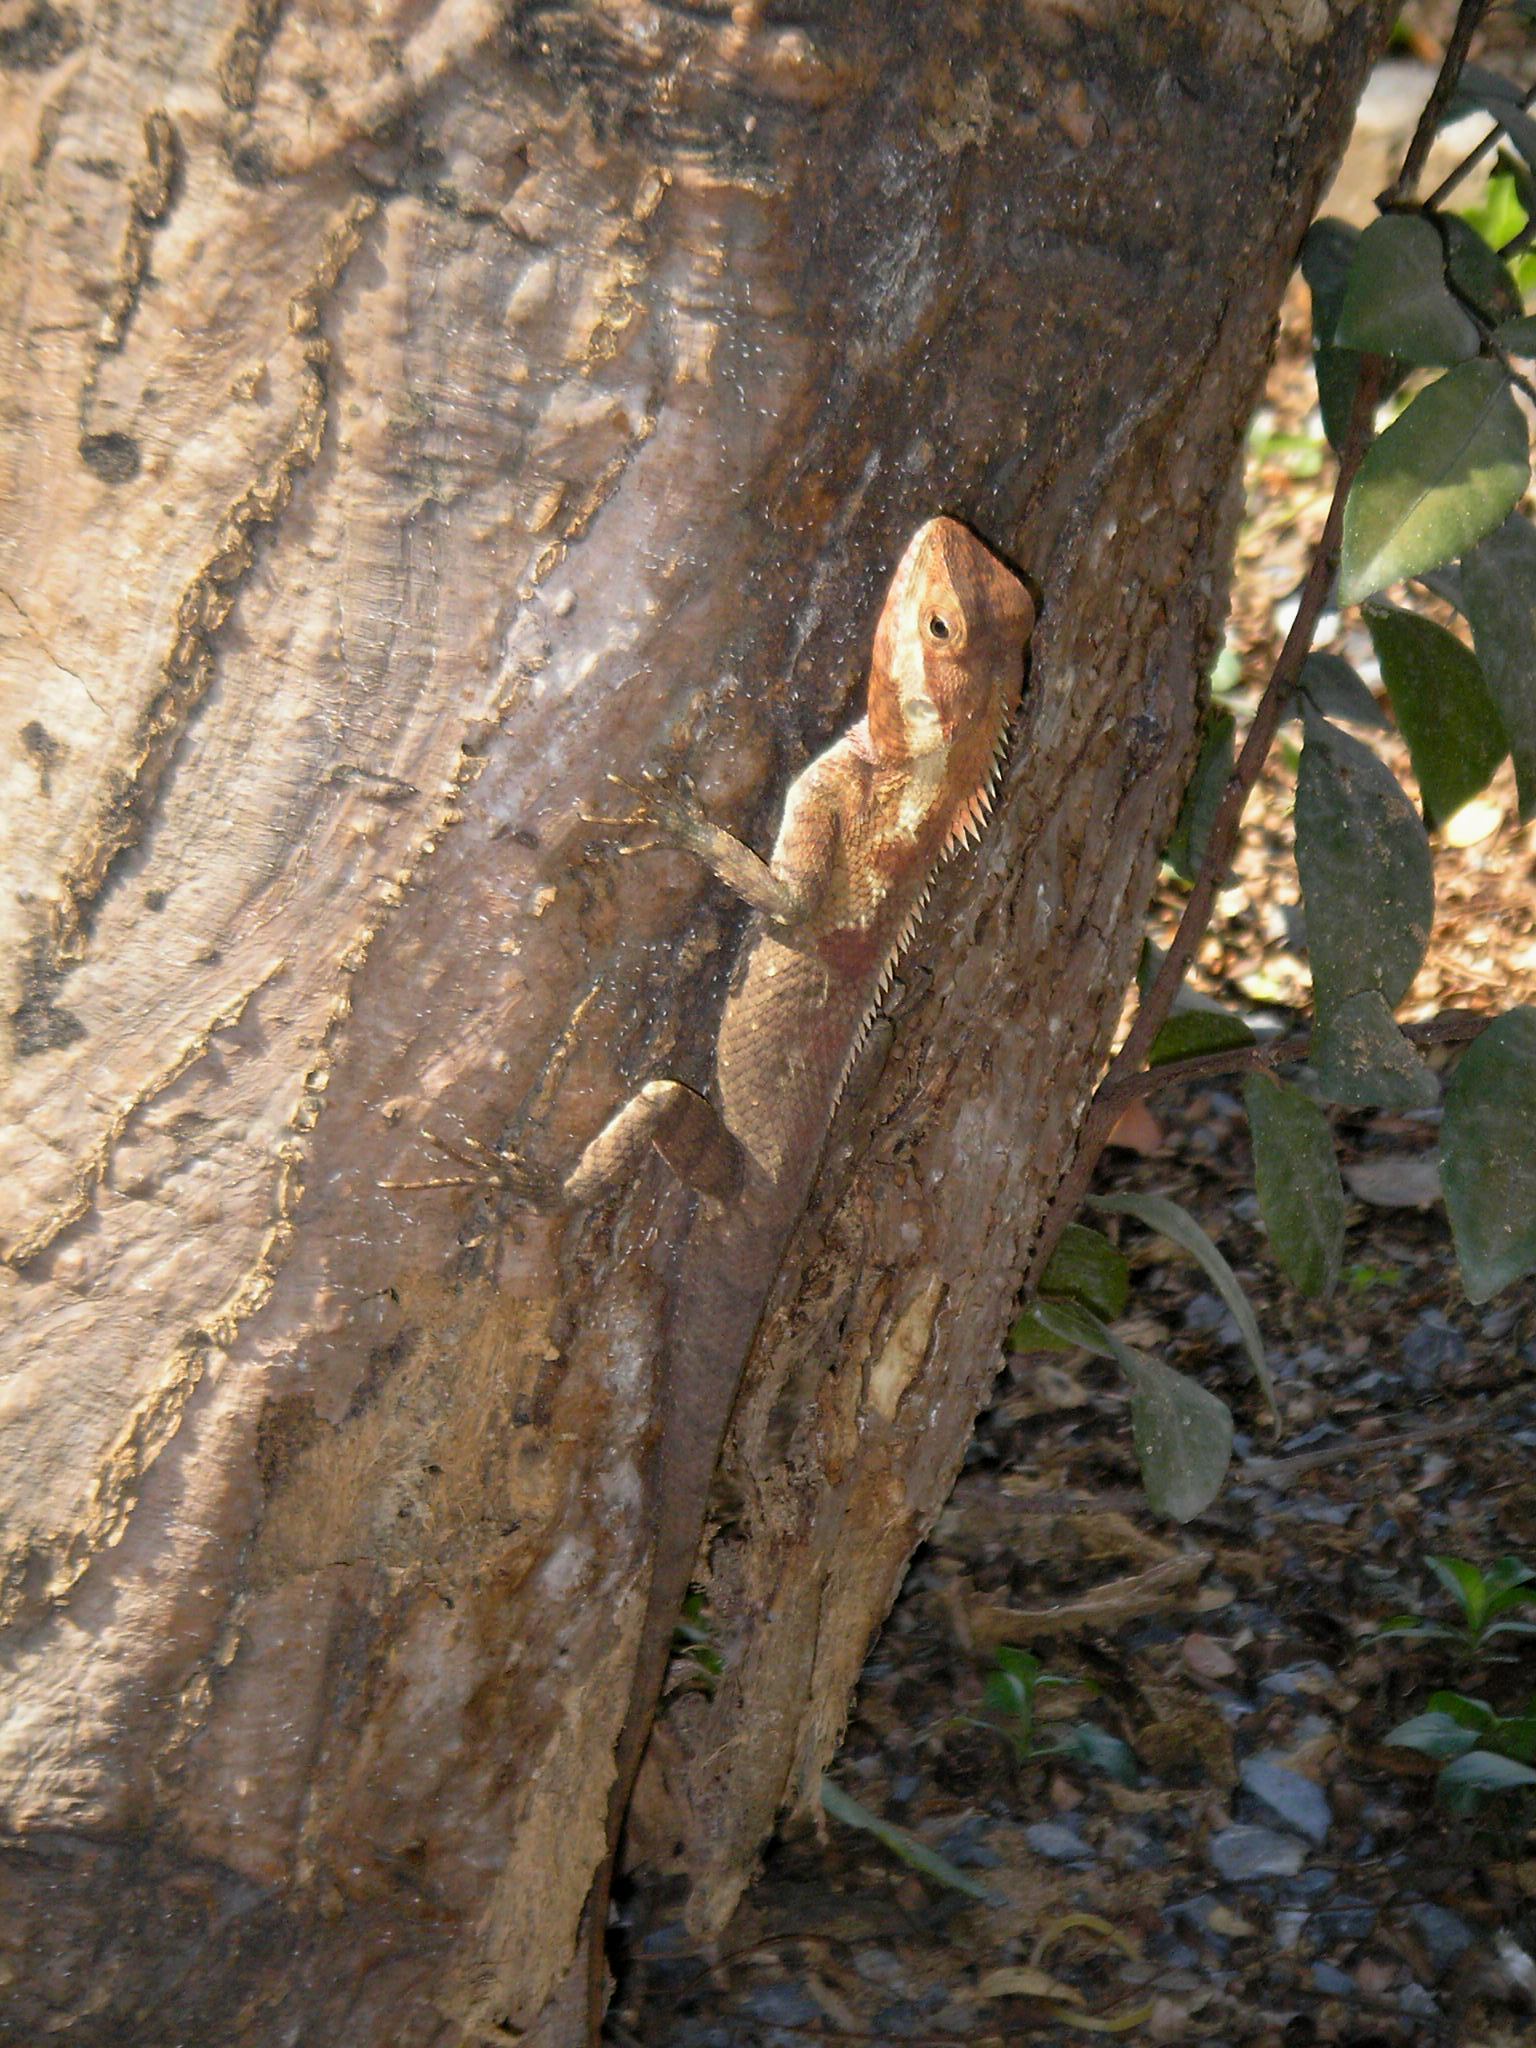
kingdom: Animalia
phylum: Chordata
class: Squamata
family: Agamidae
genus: Calotes
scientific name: Calotes goetzi
